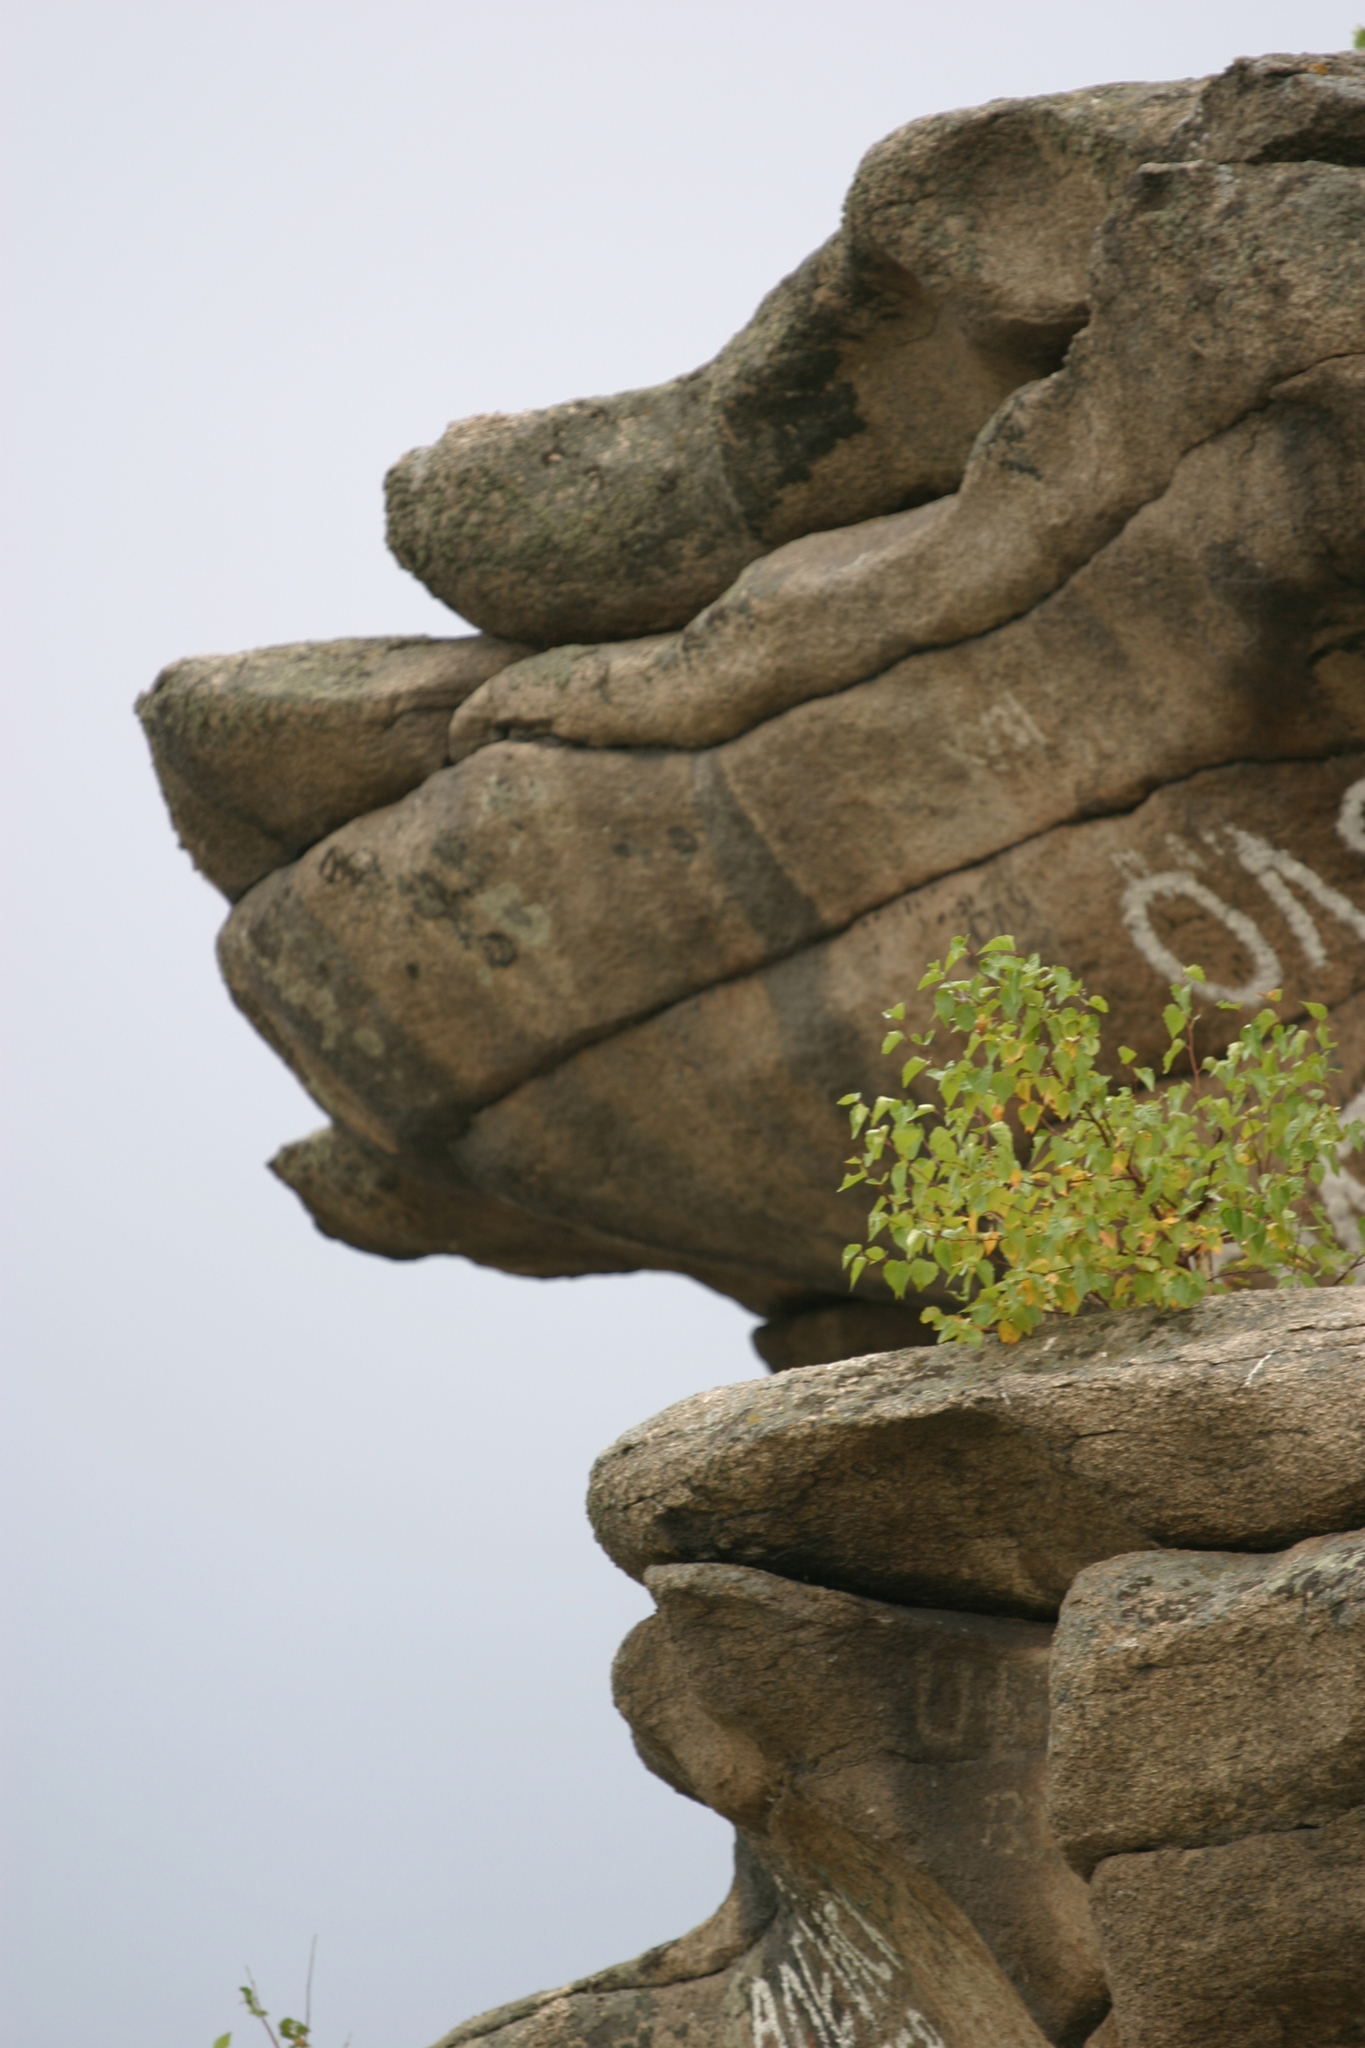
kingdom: Plantae
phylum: Tracheophyta
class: Magnoliopsida
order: Fagales
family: Betulaceae
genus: Betula
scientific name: Betula pendula
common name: Silver birch
